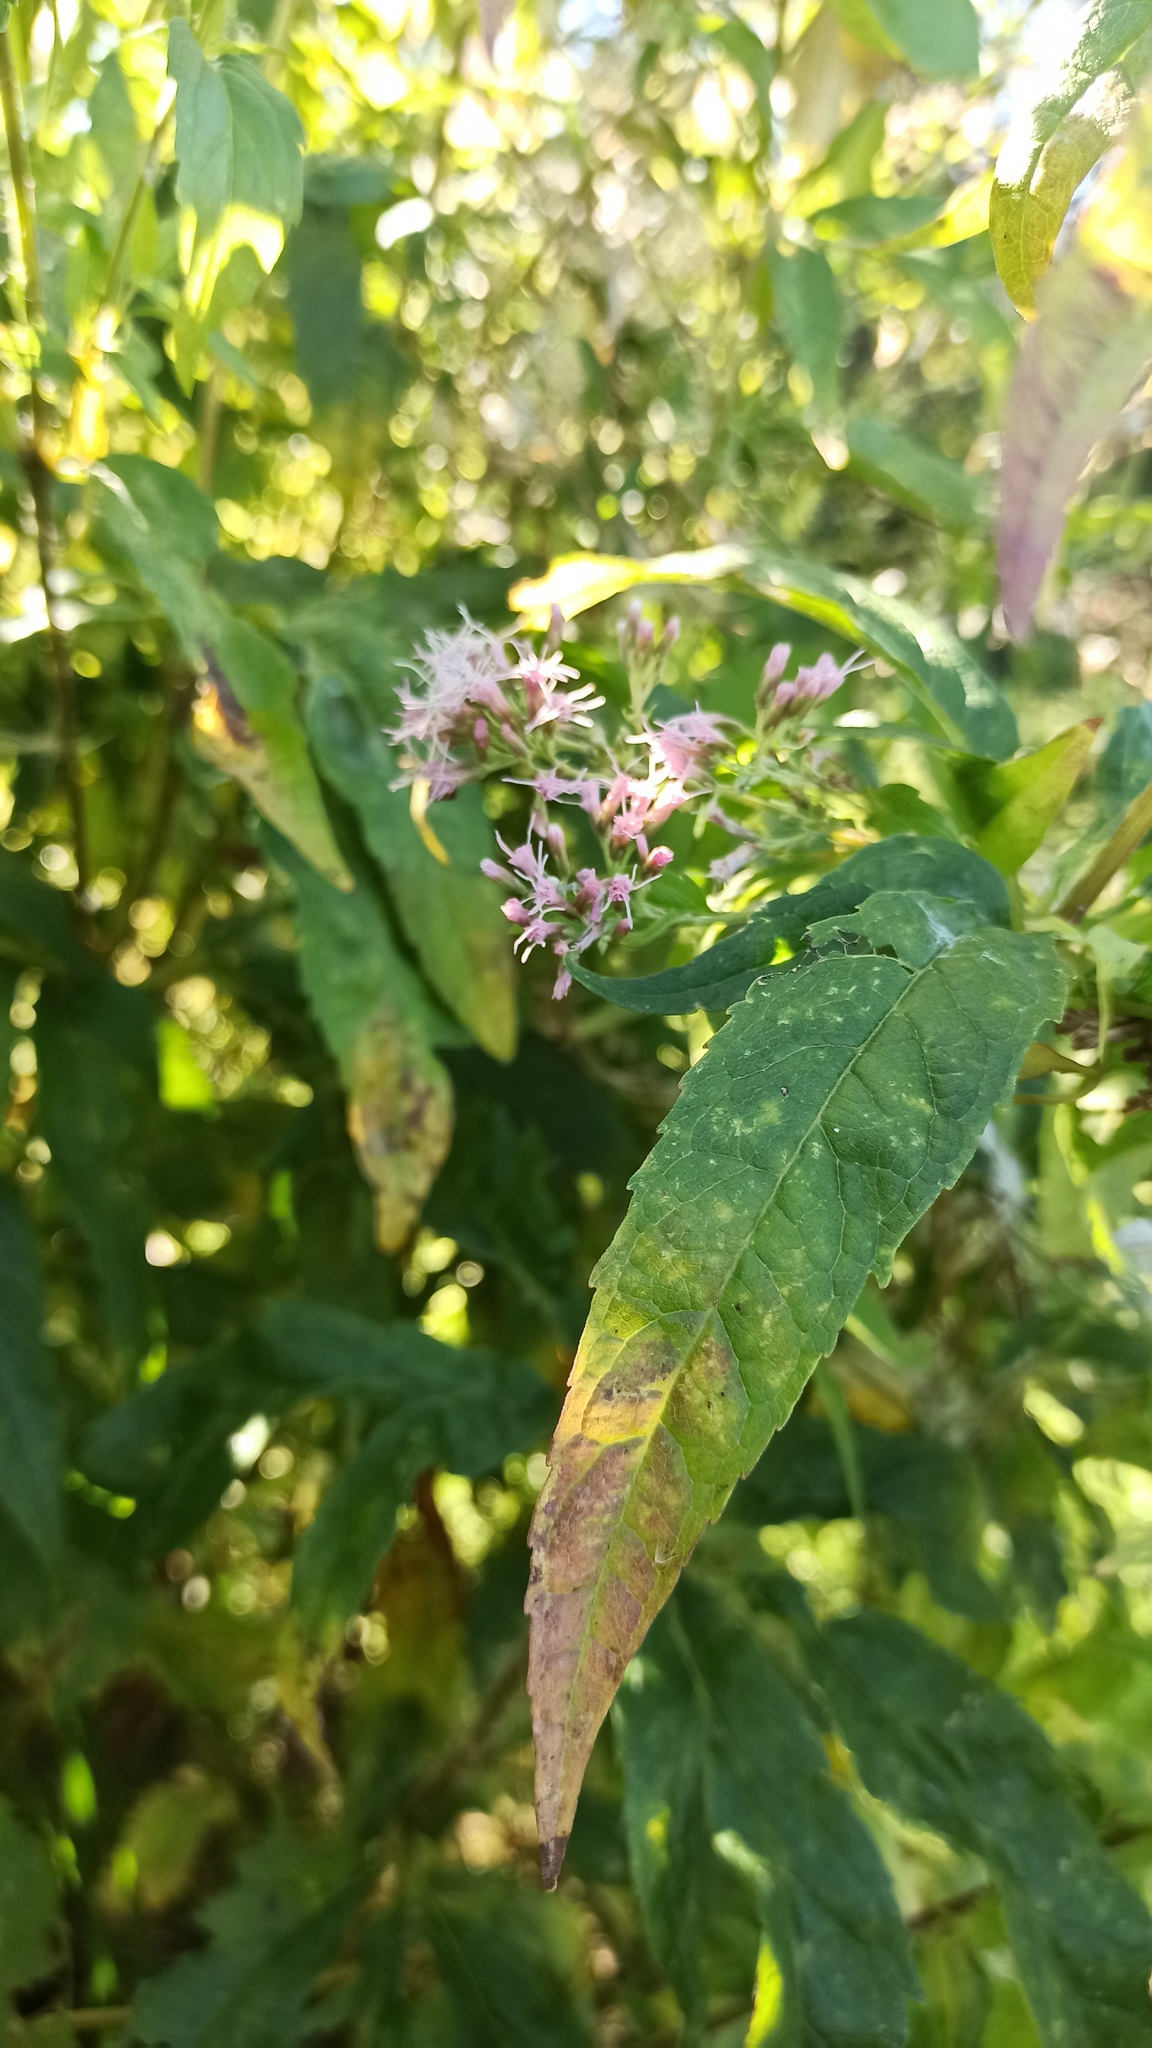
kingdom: Plantae
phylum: Tracheophyta
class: Magnoliopsida
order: Asterales
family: Asteraceae
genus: Eupatorium
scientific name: Eupatorium cannabinum
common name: Hemp-agrimony
